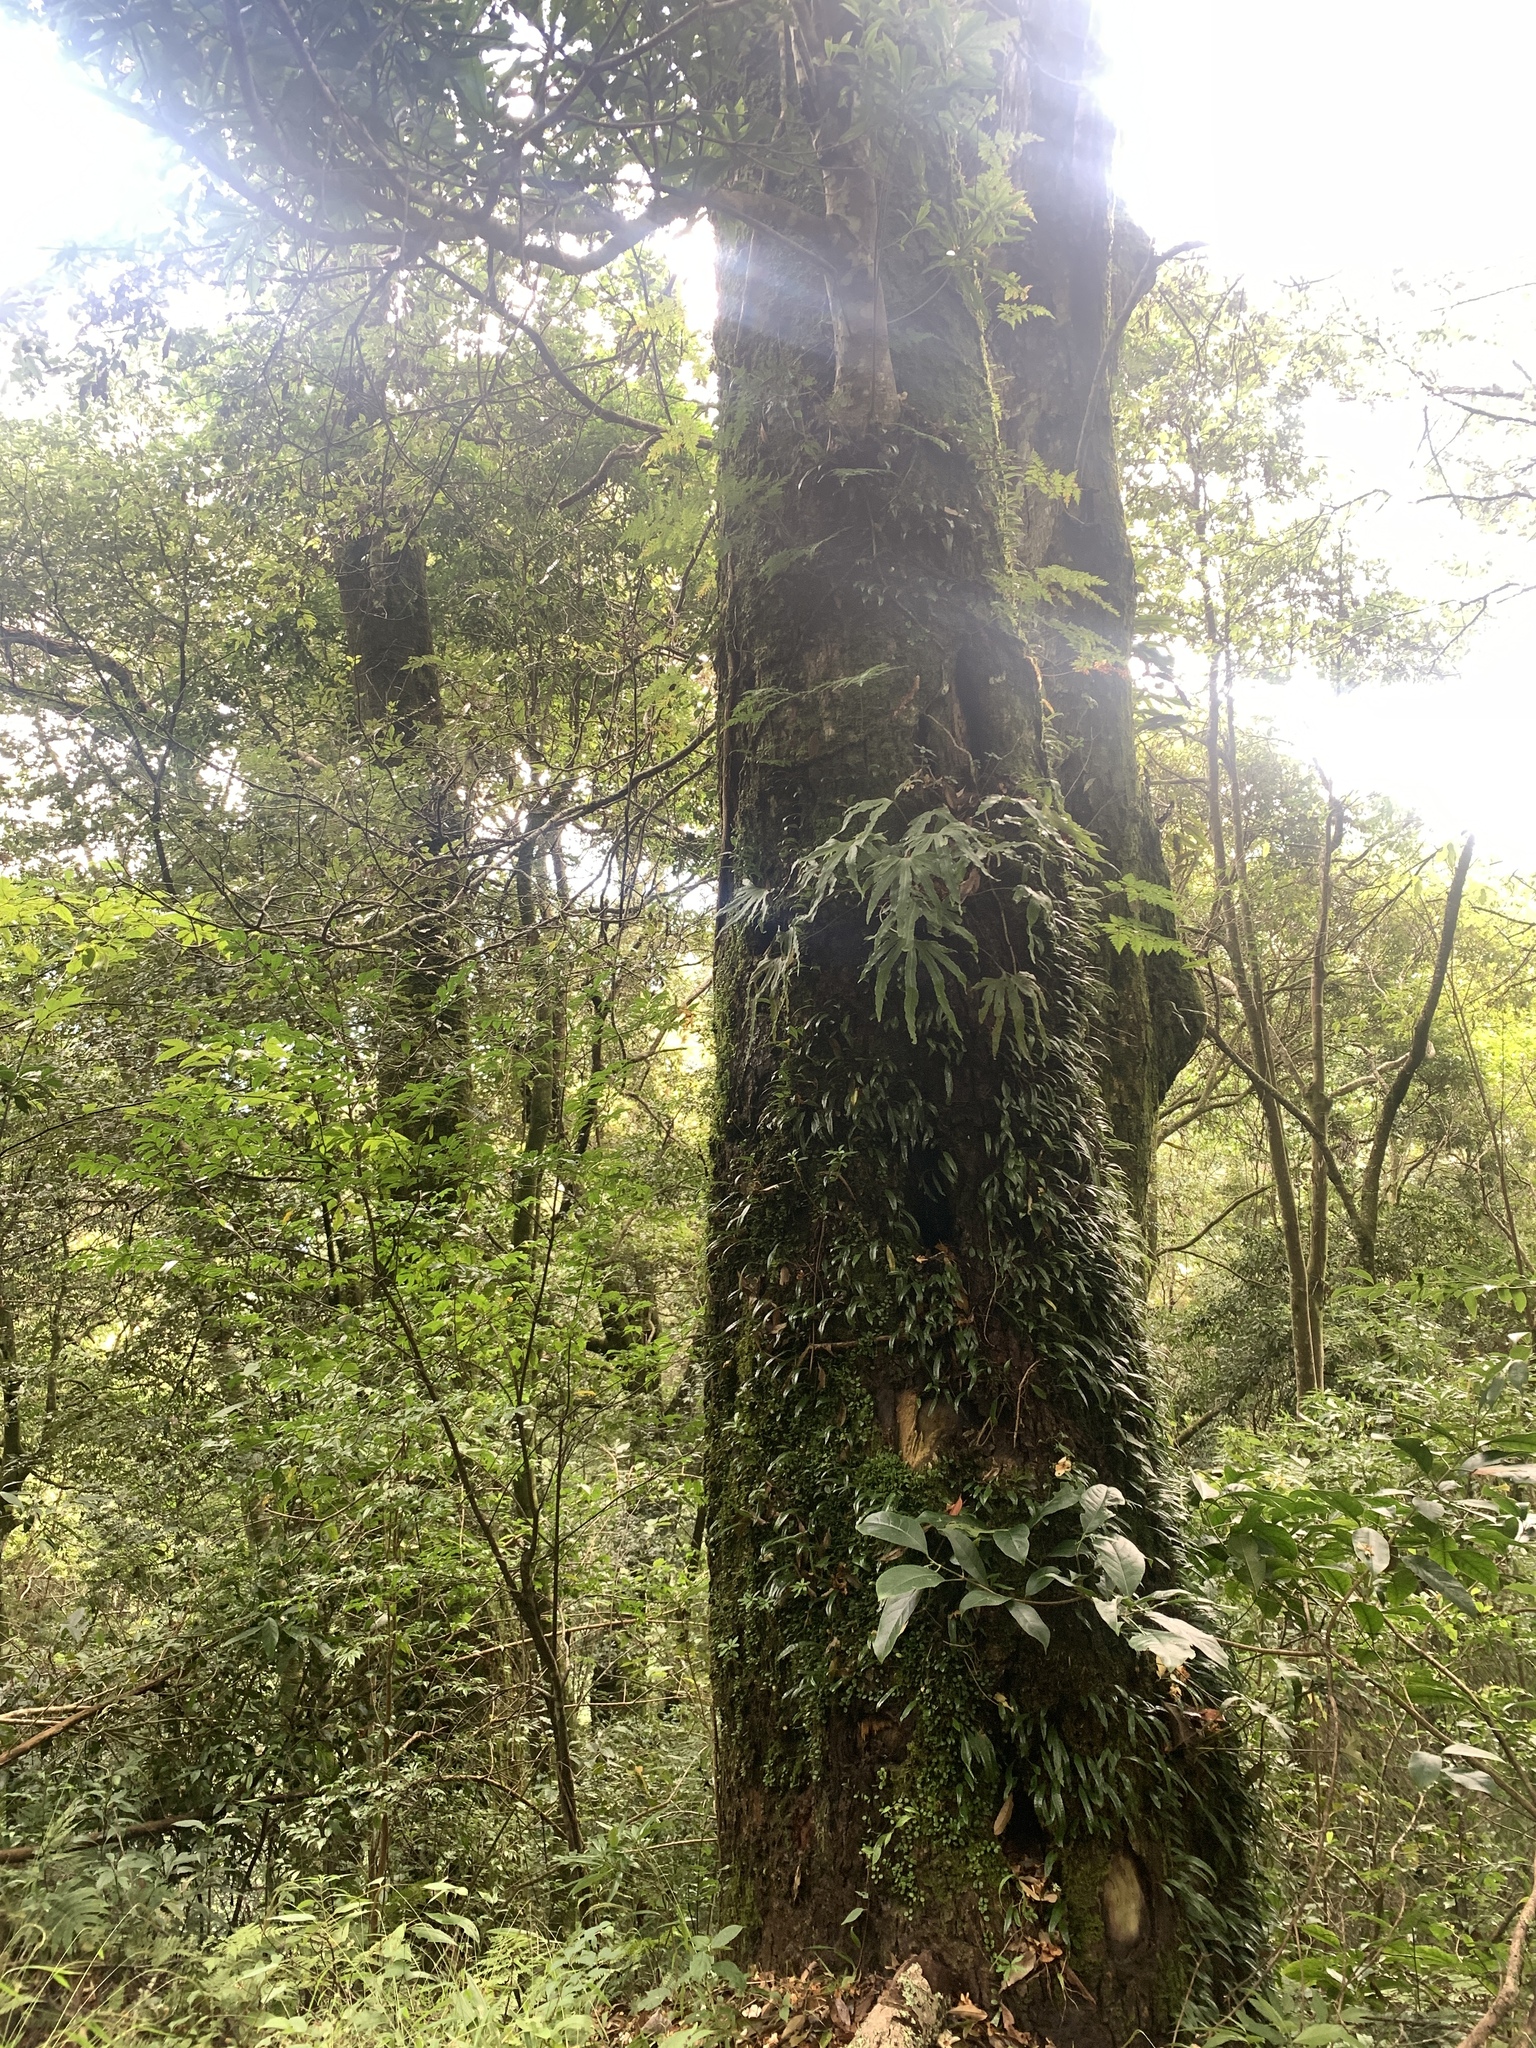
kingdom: Plantae
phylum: Tracheophyta
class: Polypodiopsida
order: Polypodiales
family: Polypodiaceae
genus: Lepisorus
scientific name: Lepisorus rostratus
